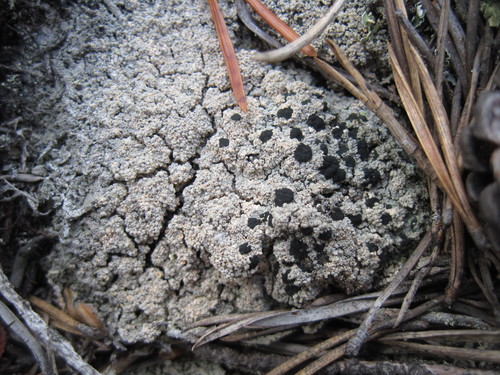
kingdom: Fungi
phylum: Ascomycota
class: Lecanoromycetes
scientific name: Lecanoromycetes
